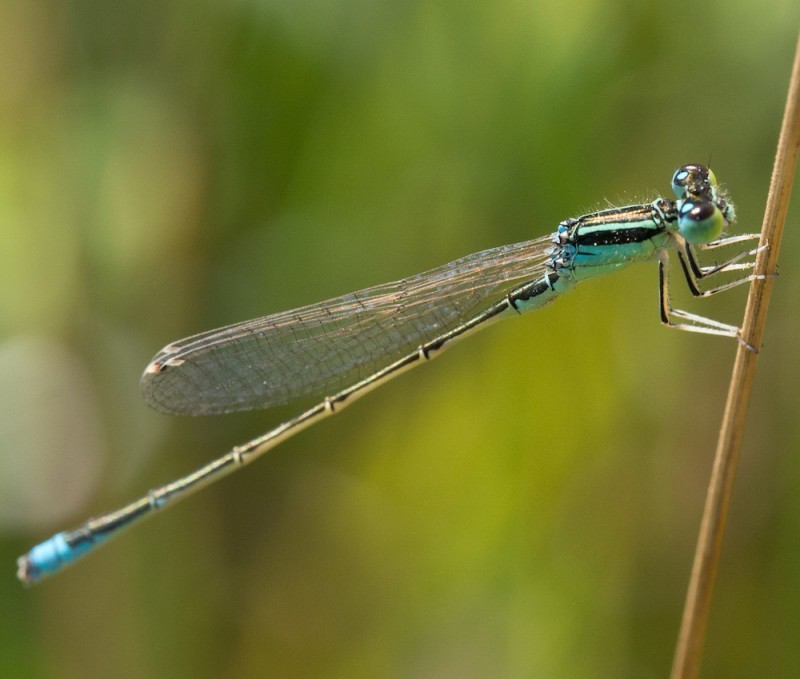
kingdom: Animalia
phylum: Arthropoda
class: Insecta
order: Odonata
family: Coenagrionidae
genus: Ischnura
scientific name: Ischnura pumilio
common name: Scarce blue-tailed damselfly
